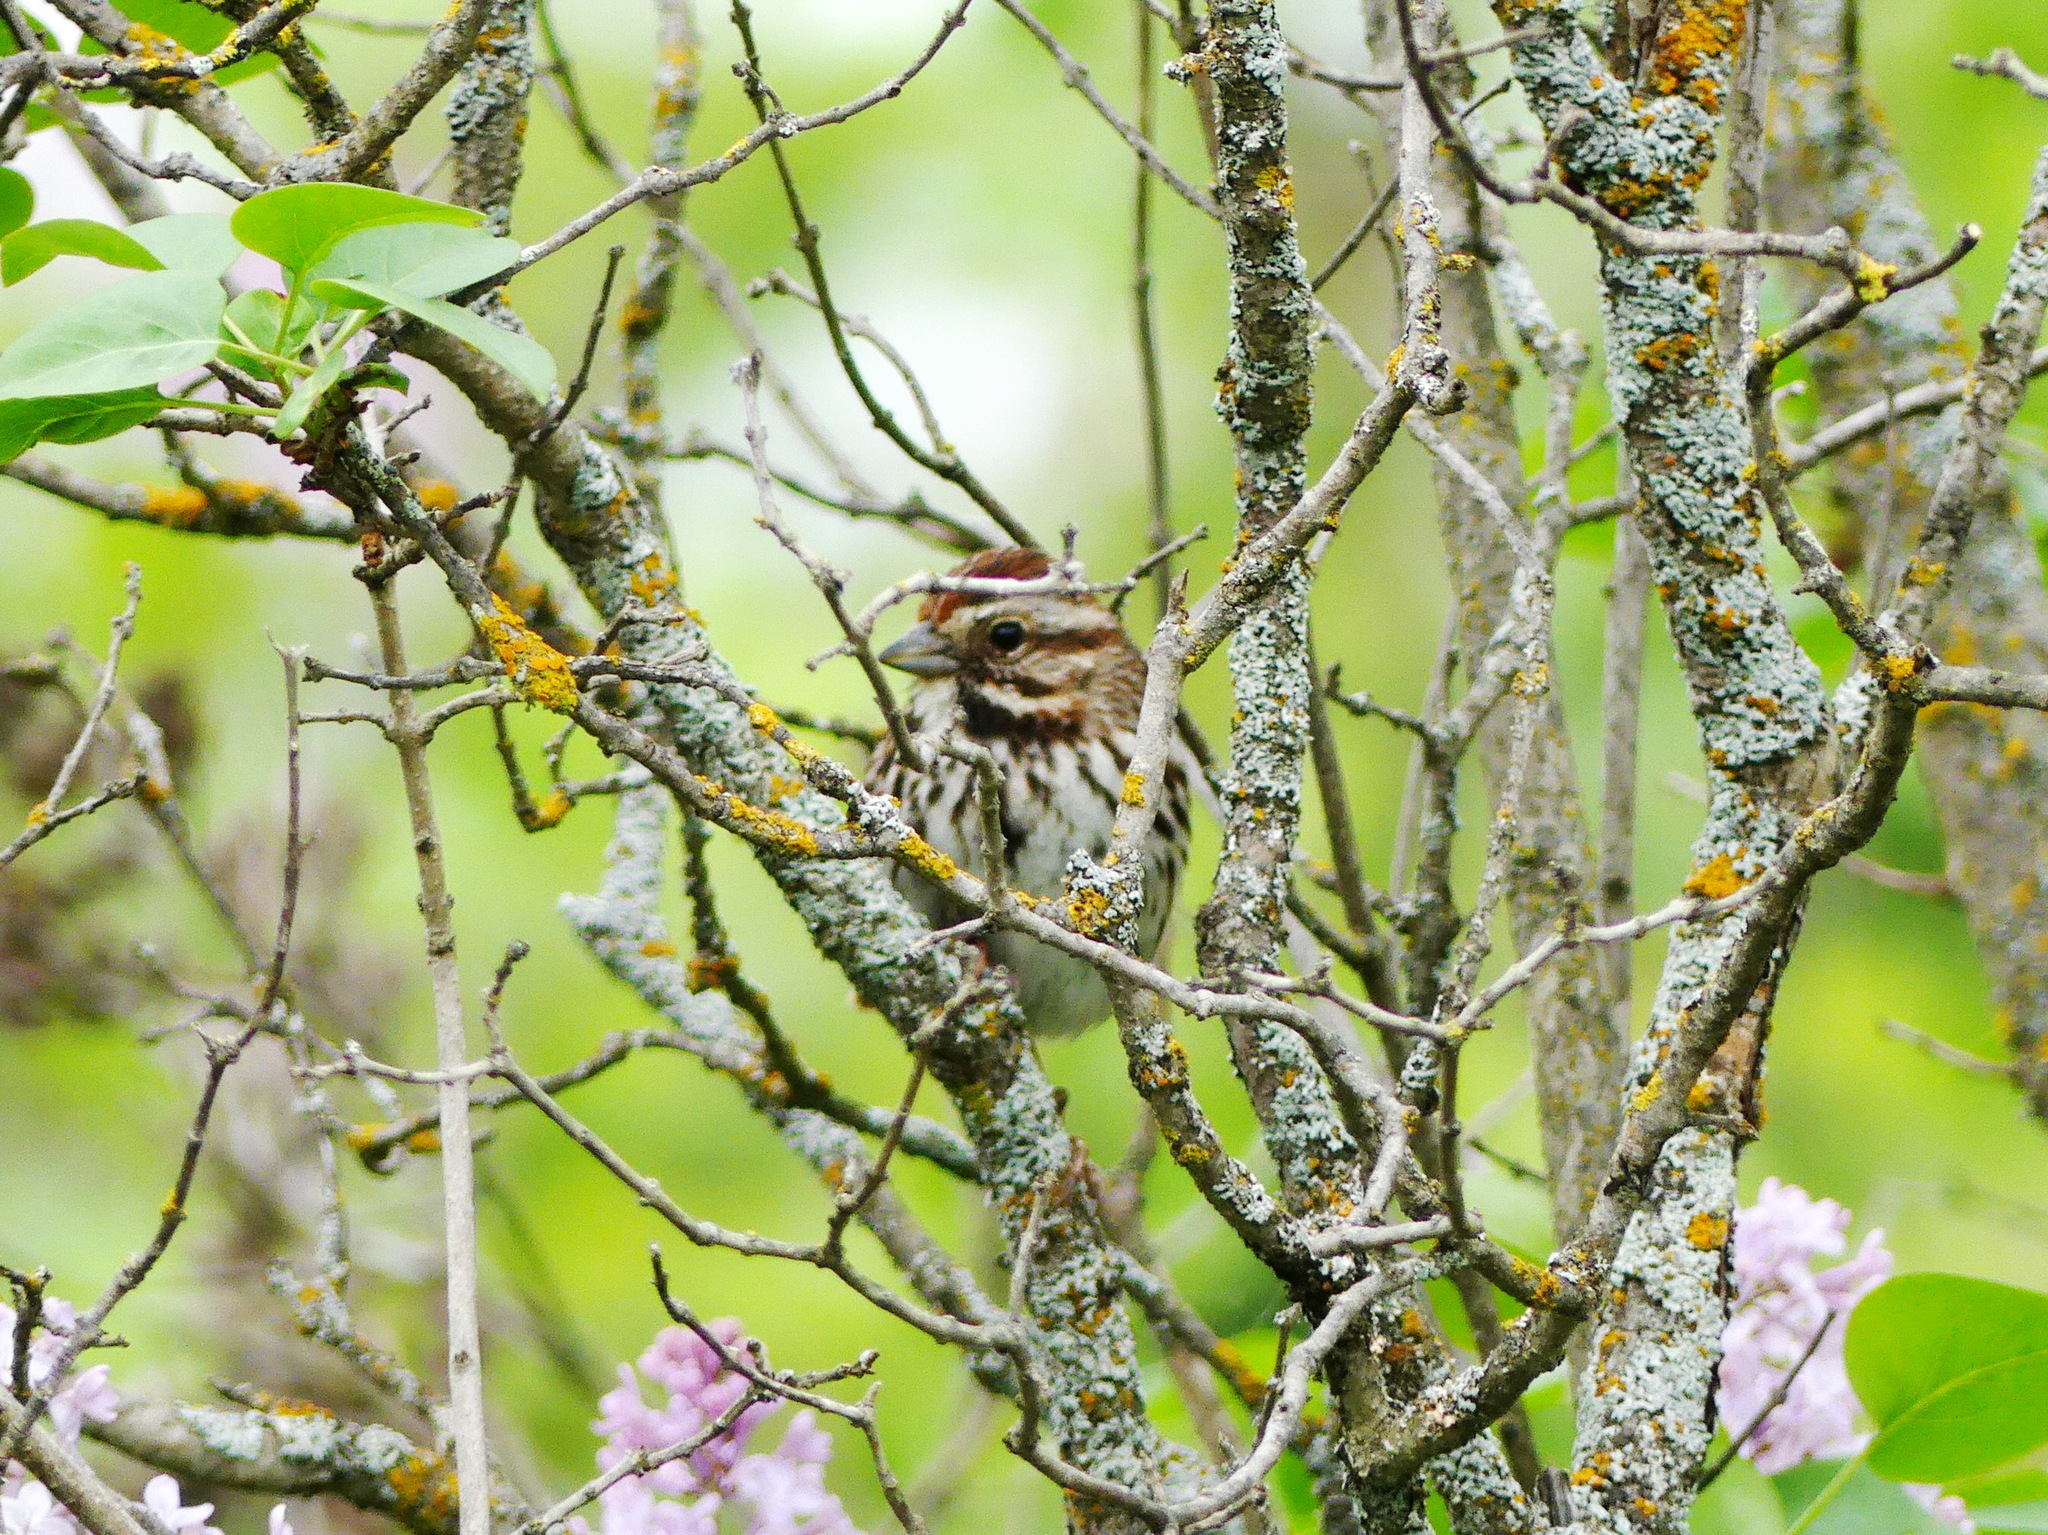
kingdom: Animalia
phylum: Chordata
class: Aves
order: Passeriformes
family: Passerellidae
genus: Melospiza
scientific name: Melospiza melodia
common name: Song sparrow
